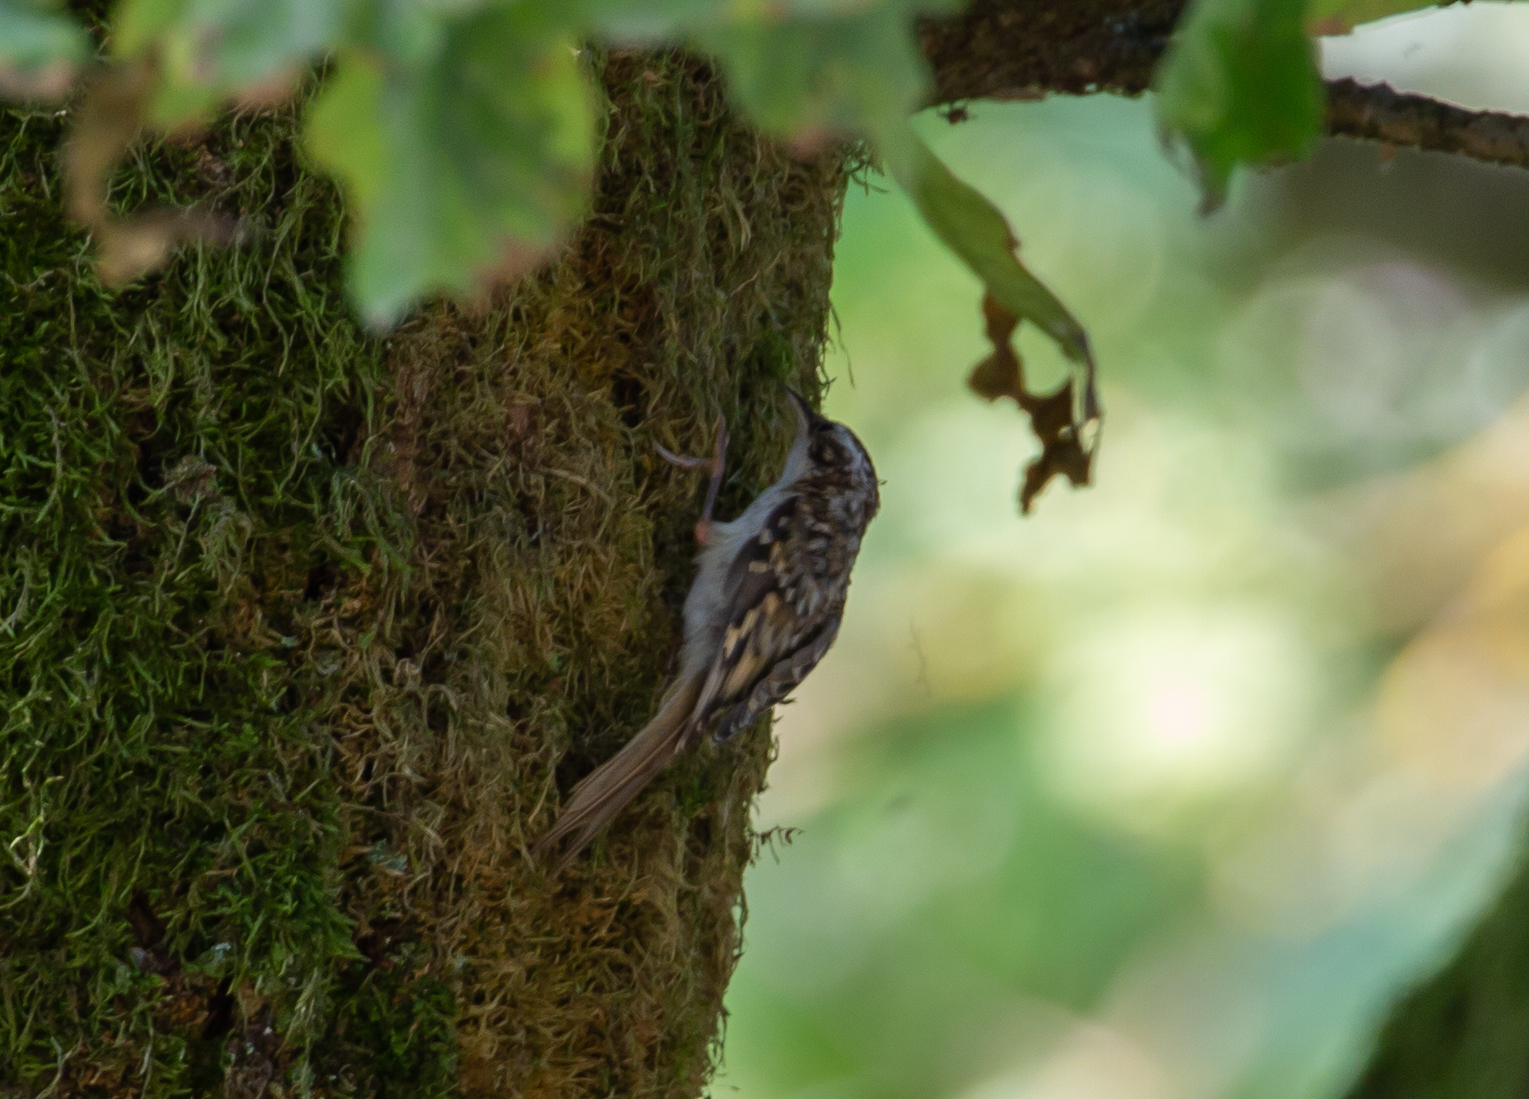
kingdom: Animalia
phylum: Chordata
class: Aves
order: Passeriformes
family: Certhiidae
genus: Certhia
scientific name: Certhia familiaris
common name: Eurasian treecreeper
